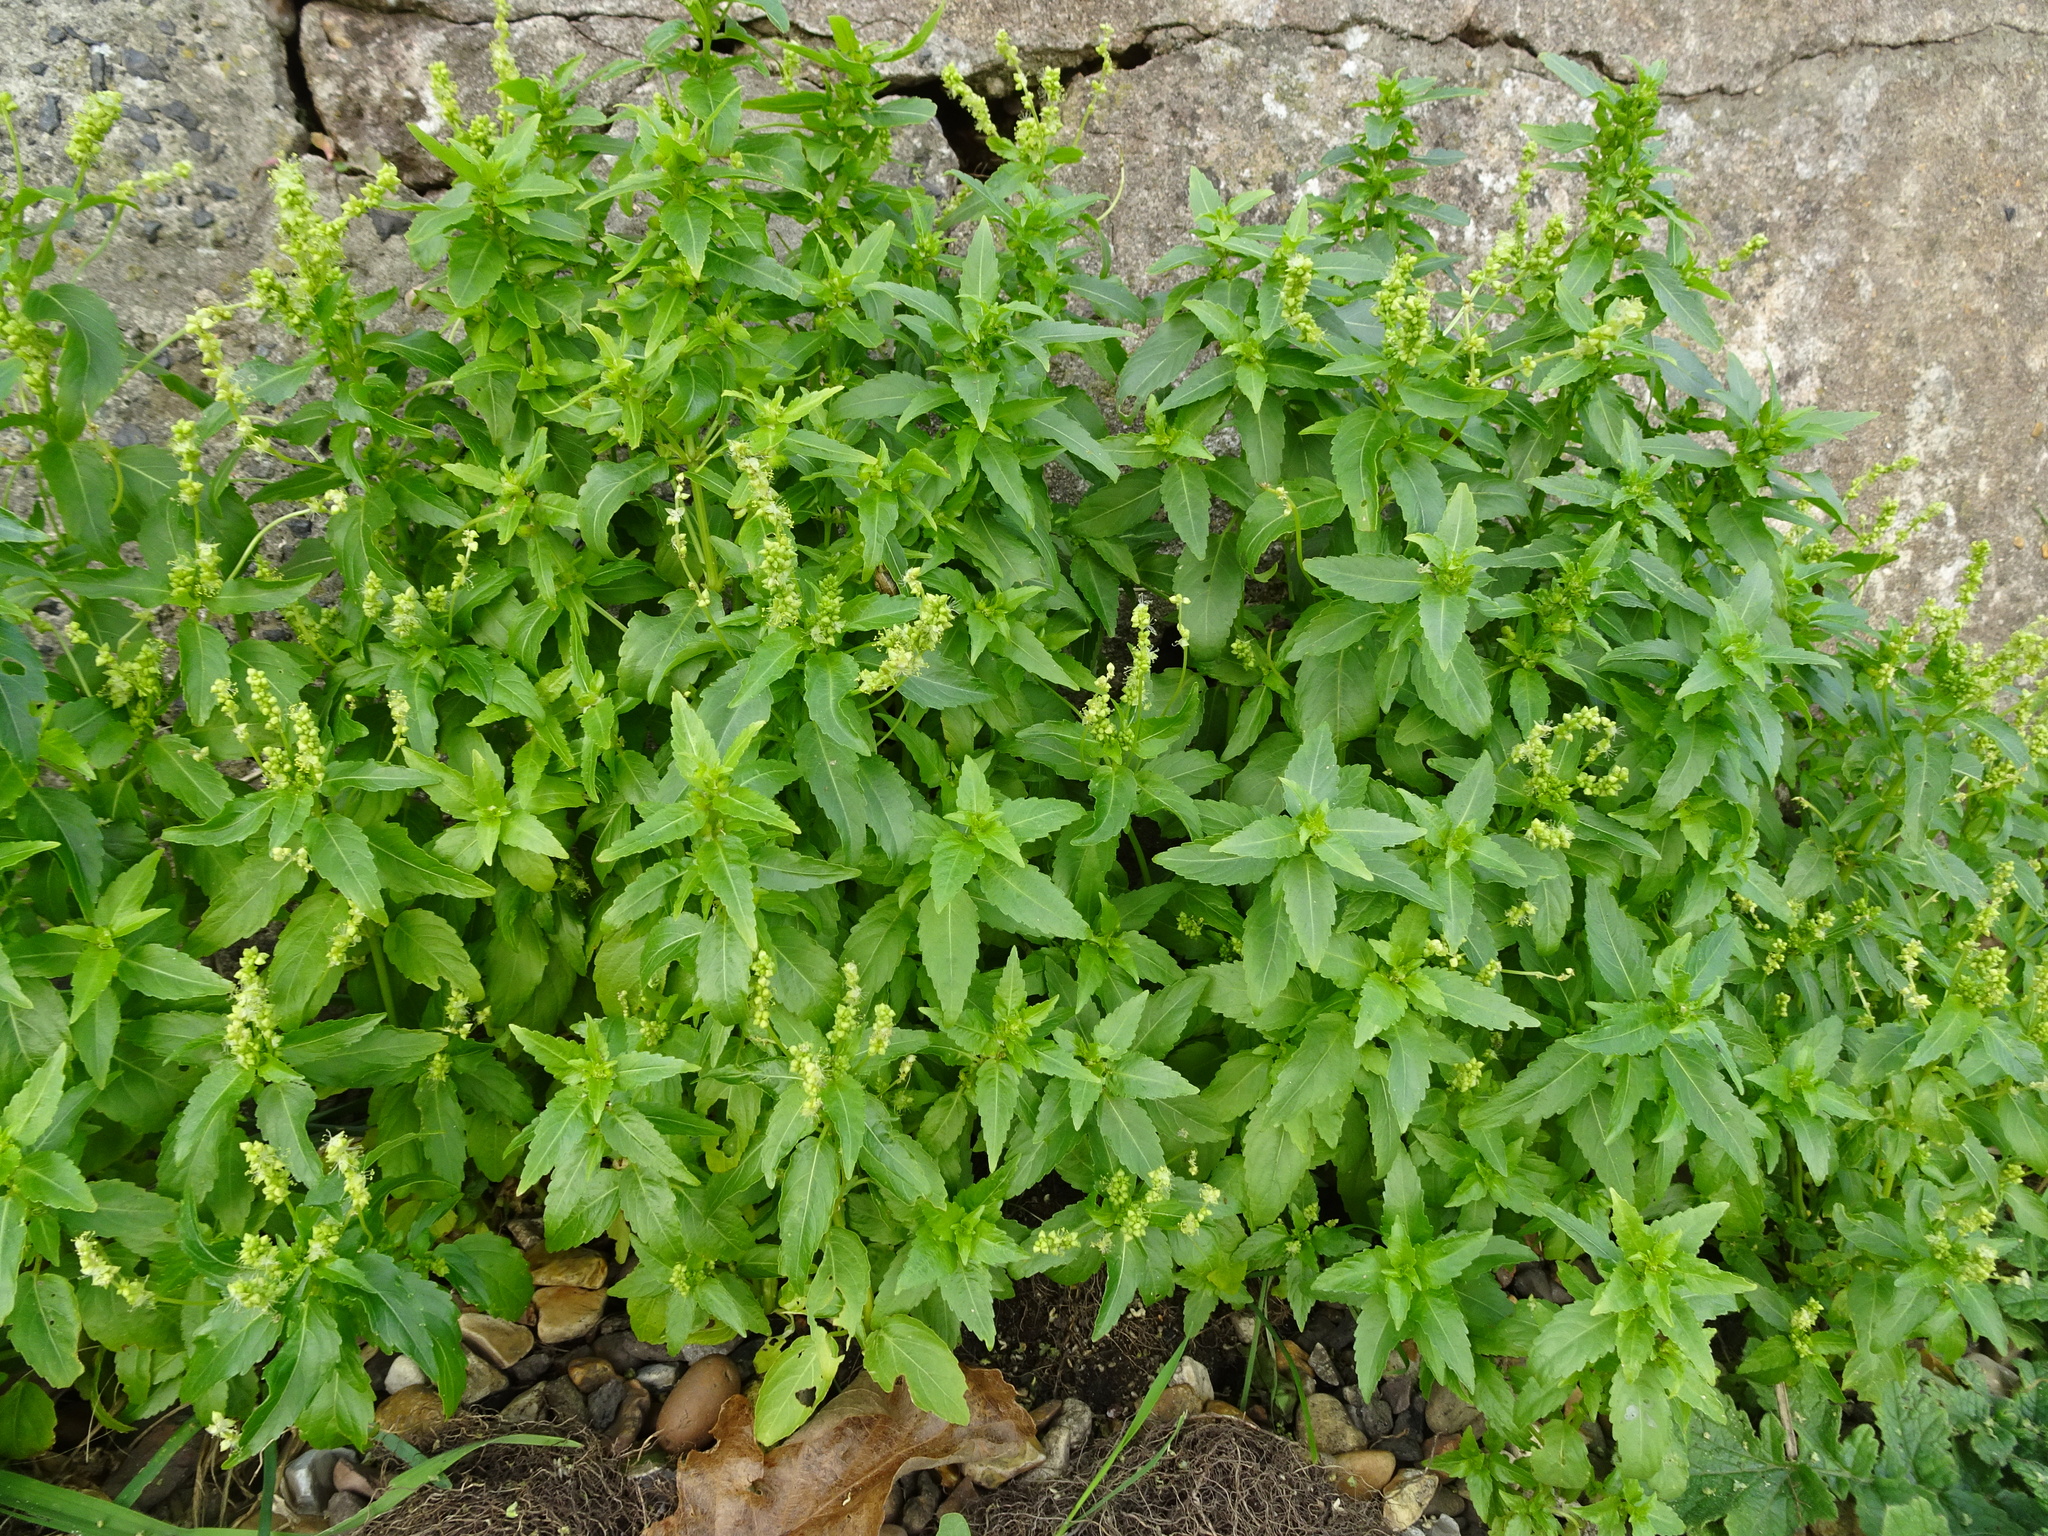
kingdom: Plantae
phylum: Tracheophyta
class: Magnoliopsida
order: Malpighiales
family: Euphorbiaceae
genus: Mercurialis
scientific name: Mercurialis annua
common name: Annual mercury
